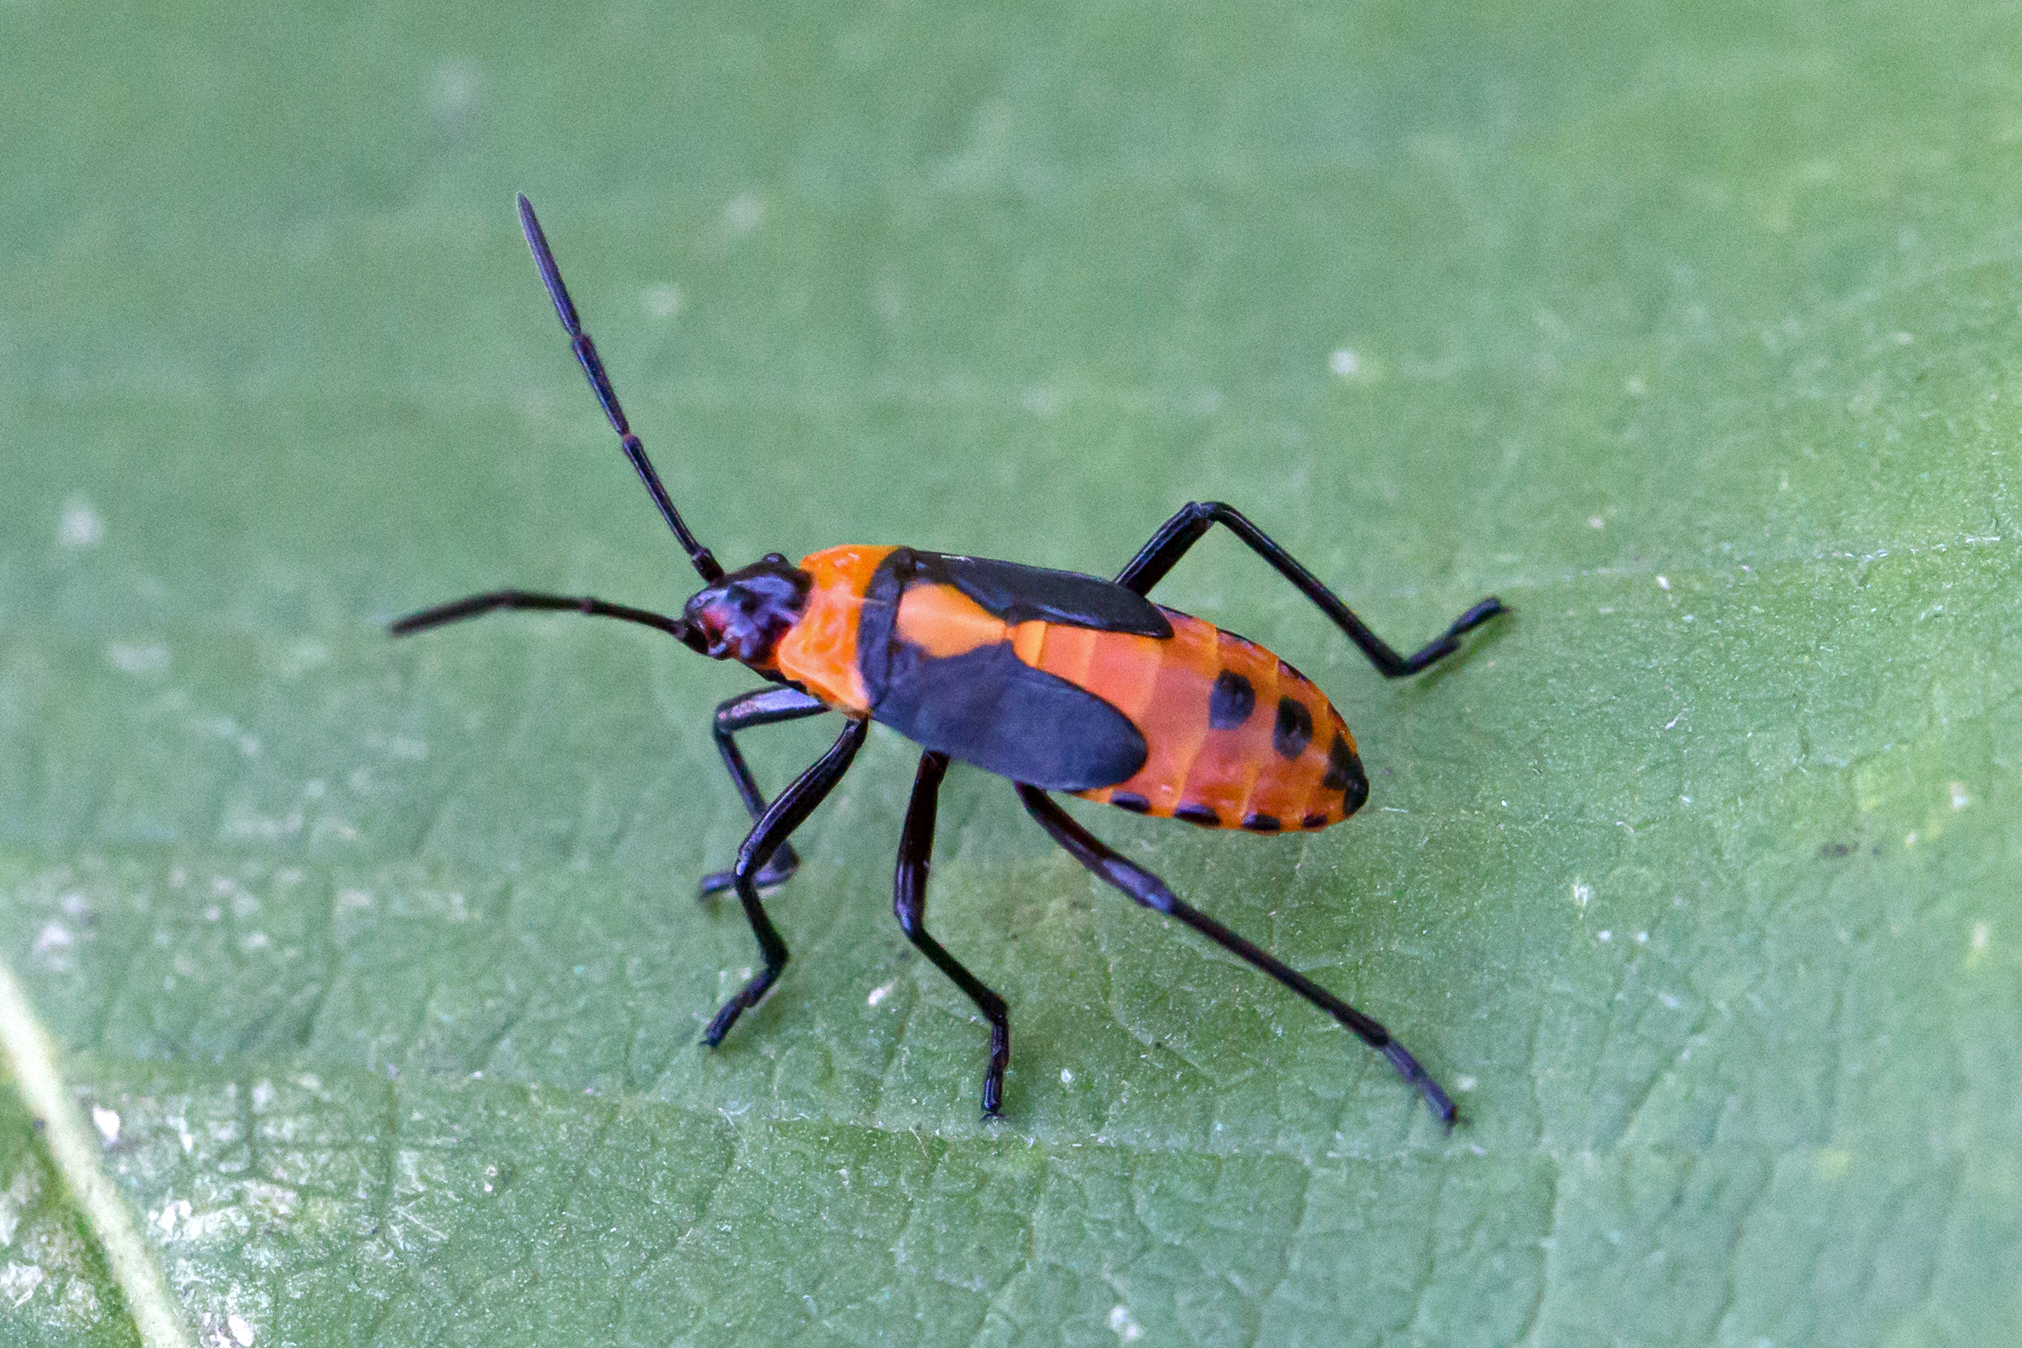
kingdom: Animalia
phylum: Arthropoda
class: Insecta
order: Hemiptera
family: Lygaeidae
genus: Oncopeltus
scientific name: Oncopeltus fasciatus
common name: Large milkweed bug
